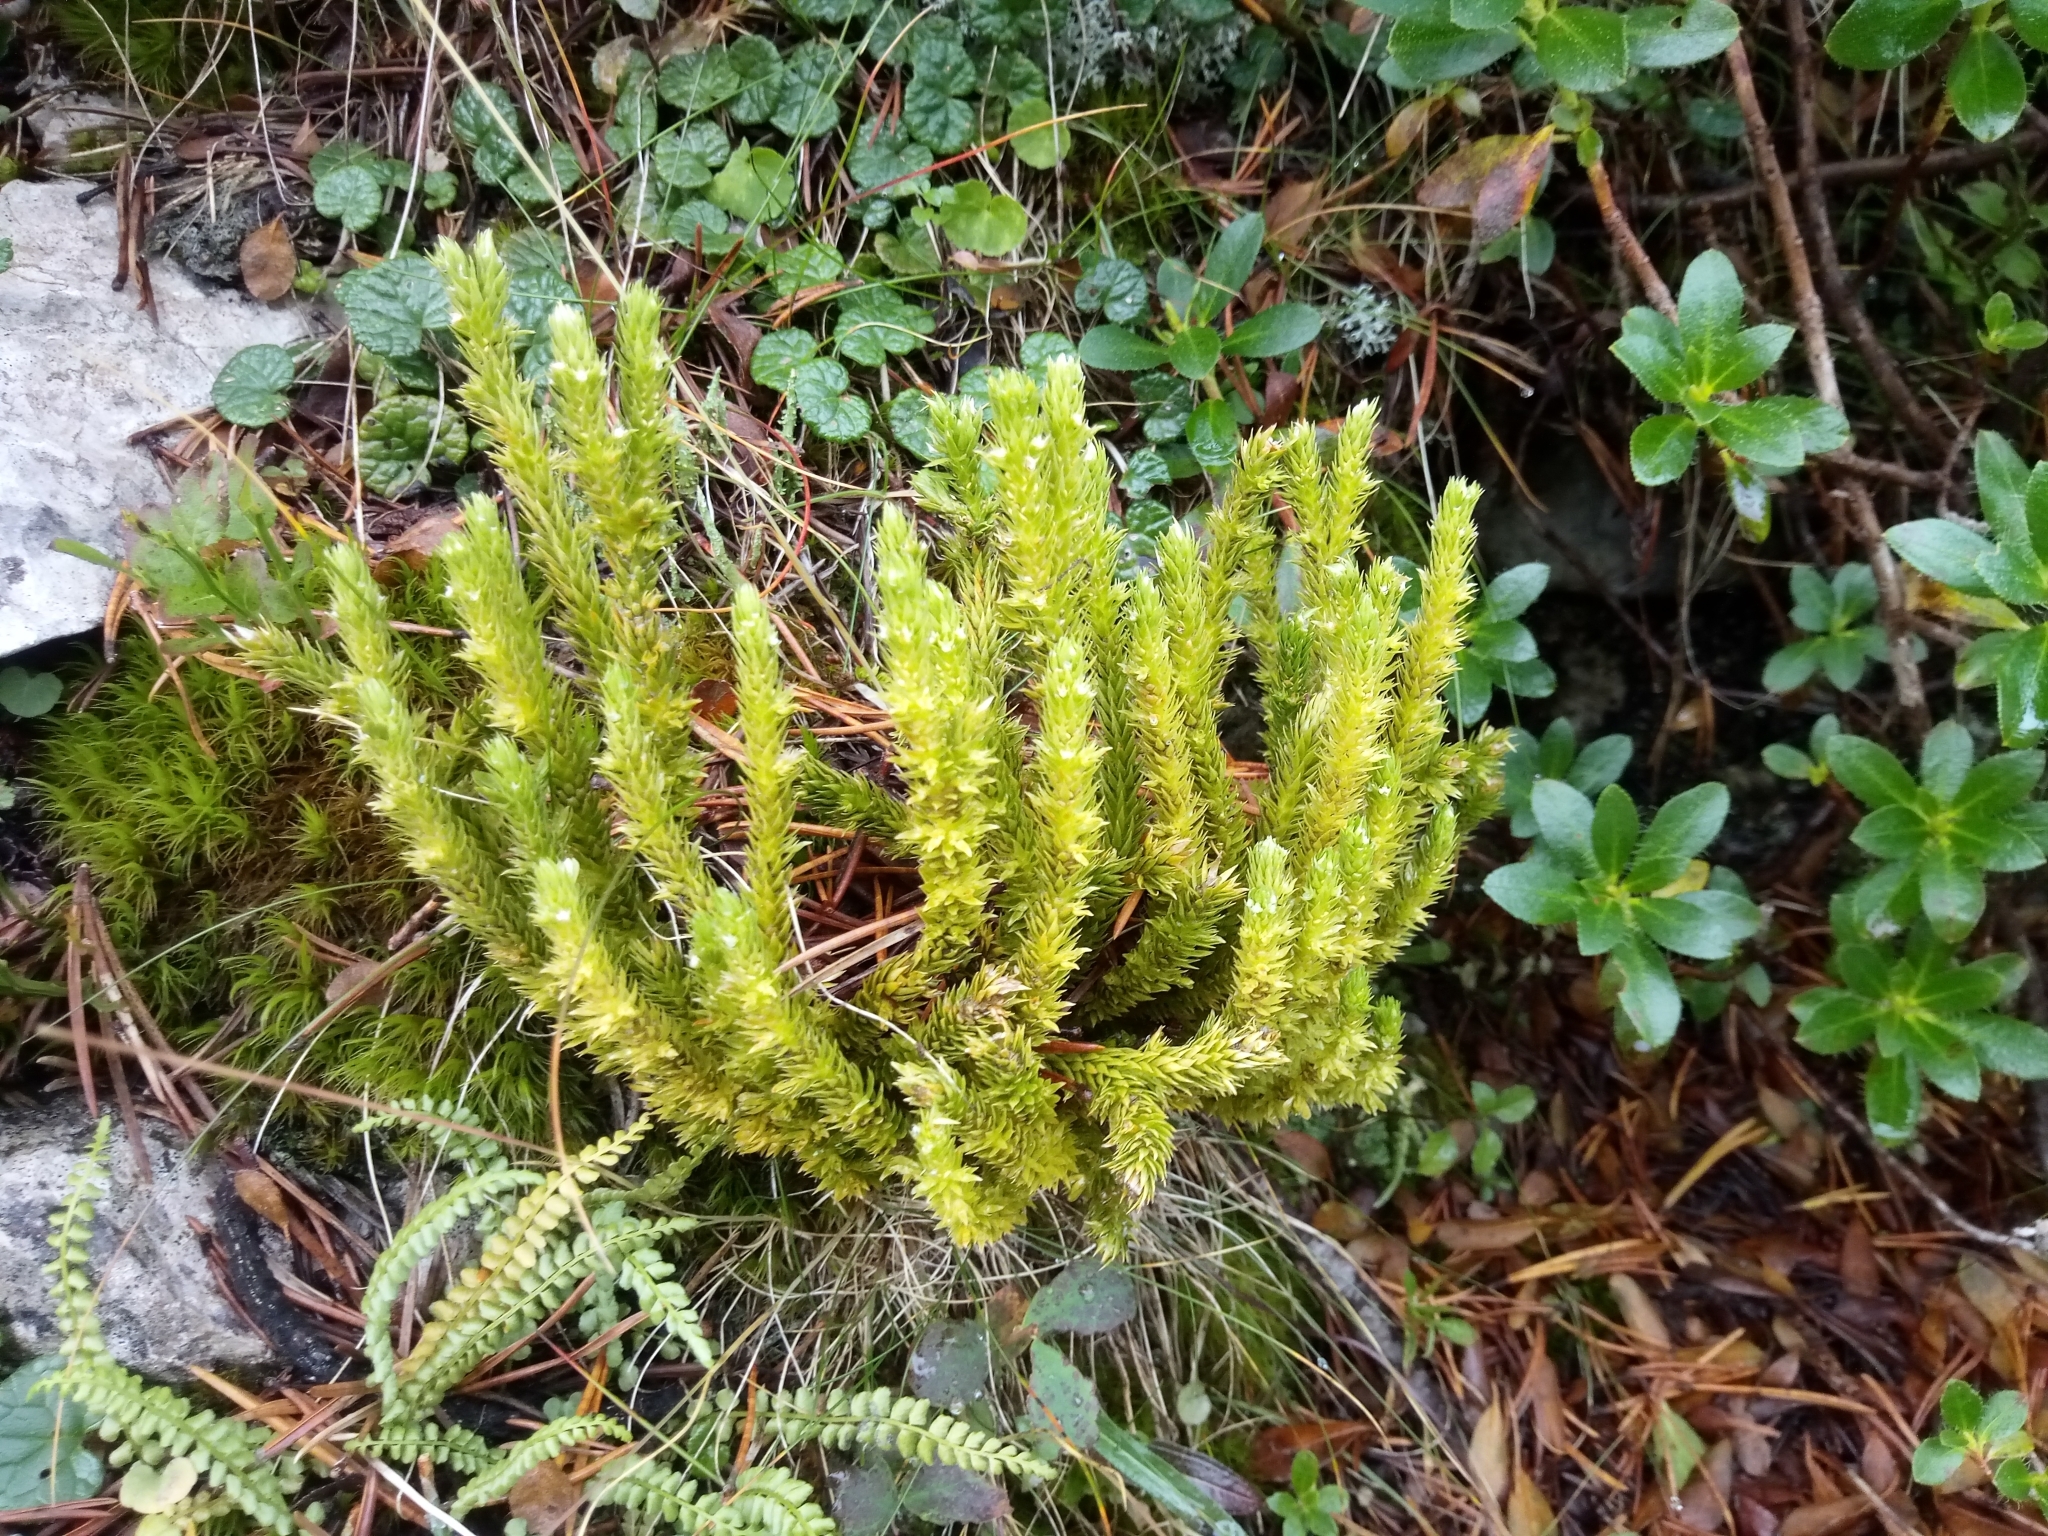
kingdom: Plantae
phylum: Tracheophyta
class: Lycopodiopsida
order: Lycopodiales
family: Lycopodiaceae
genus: Huperzia
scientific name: Huperzia selago
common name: Northern firmoss
